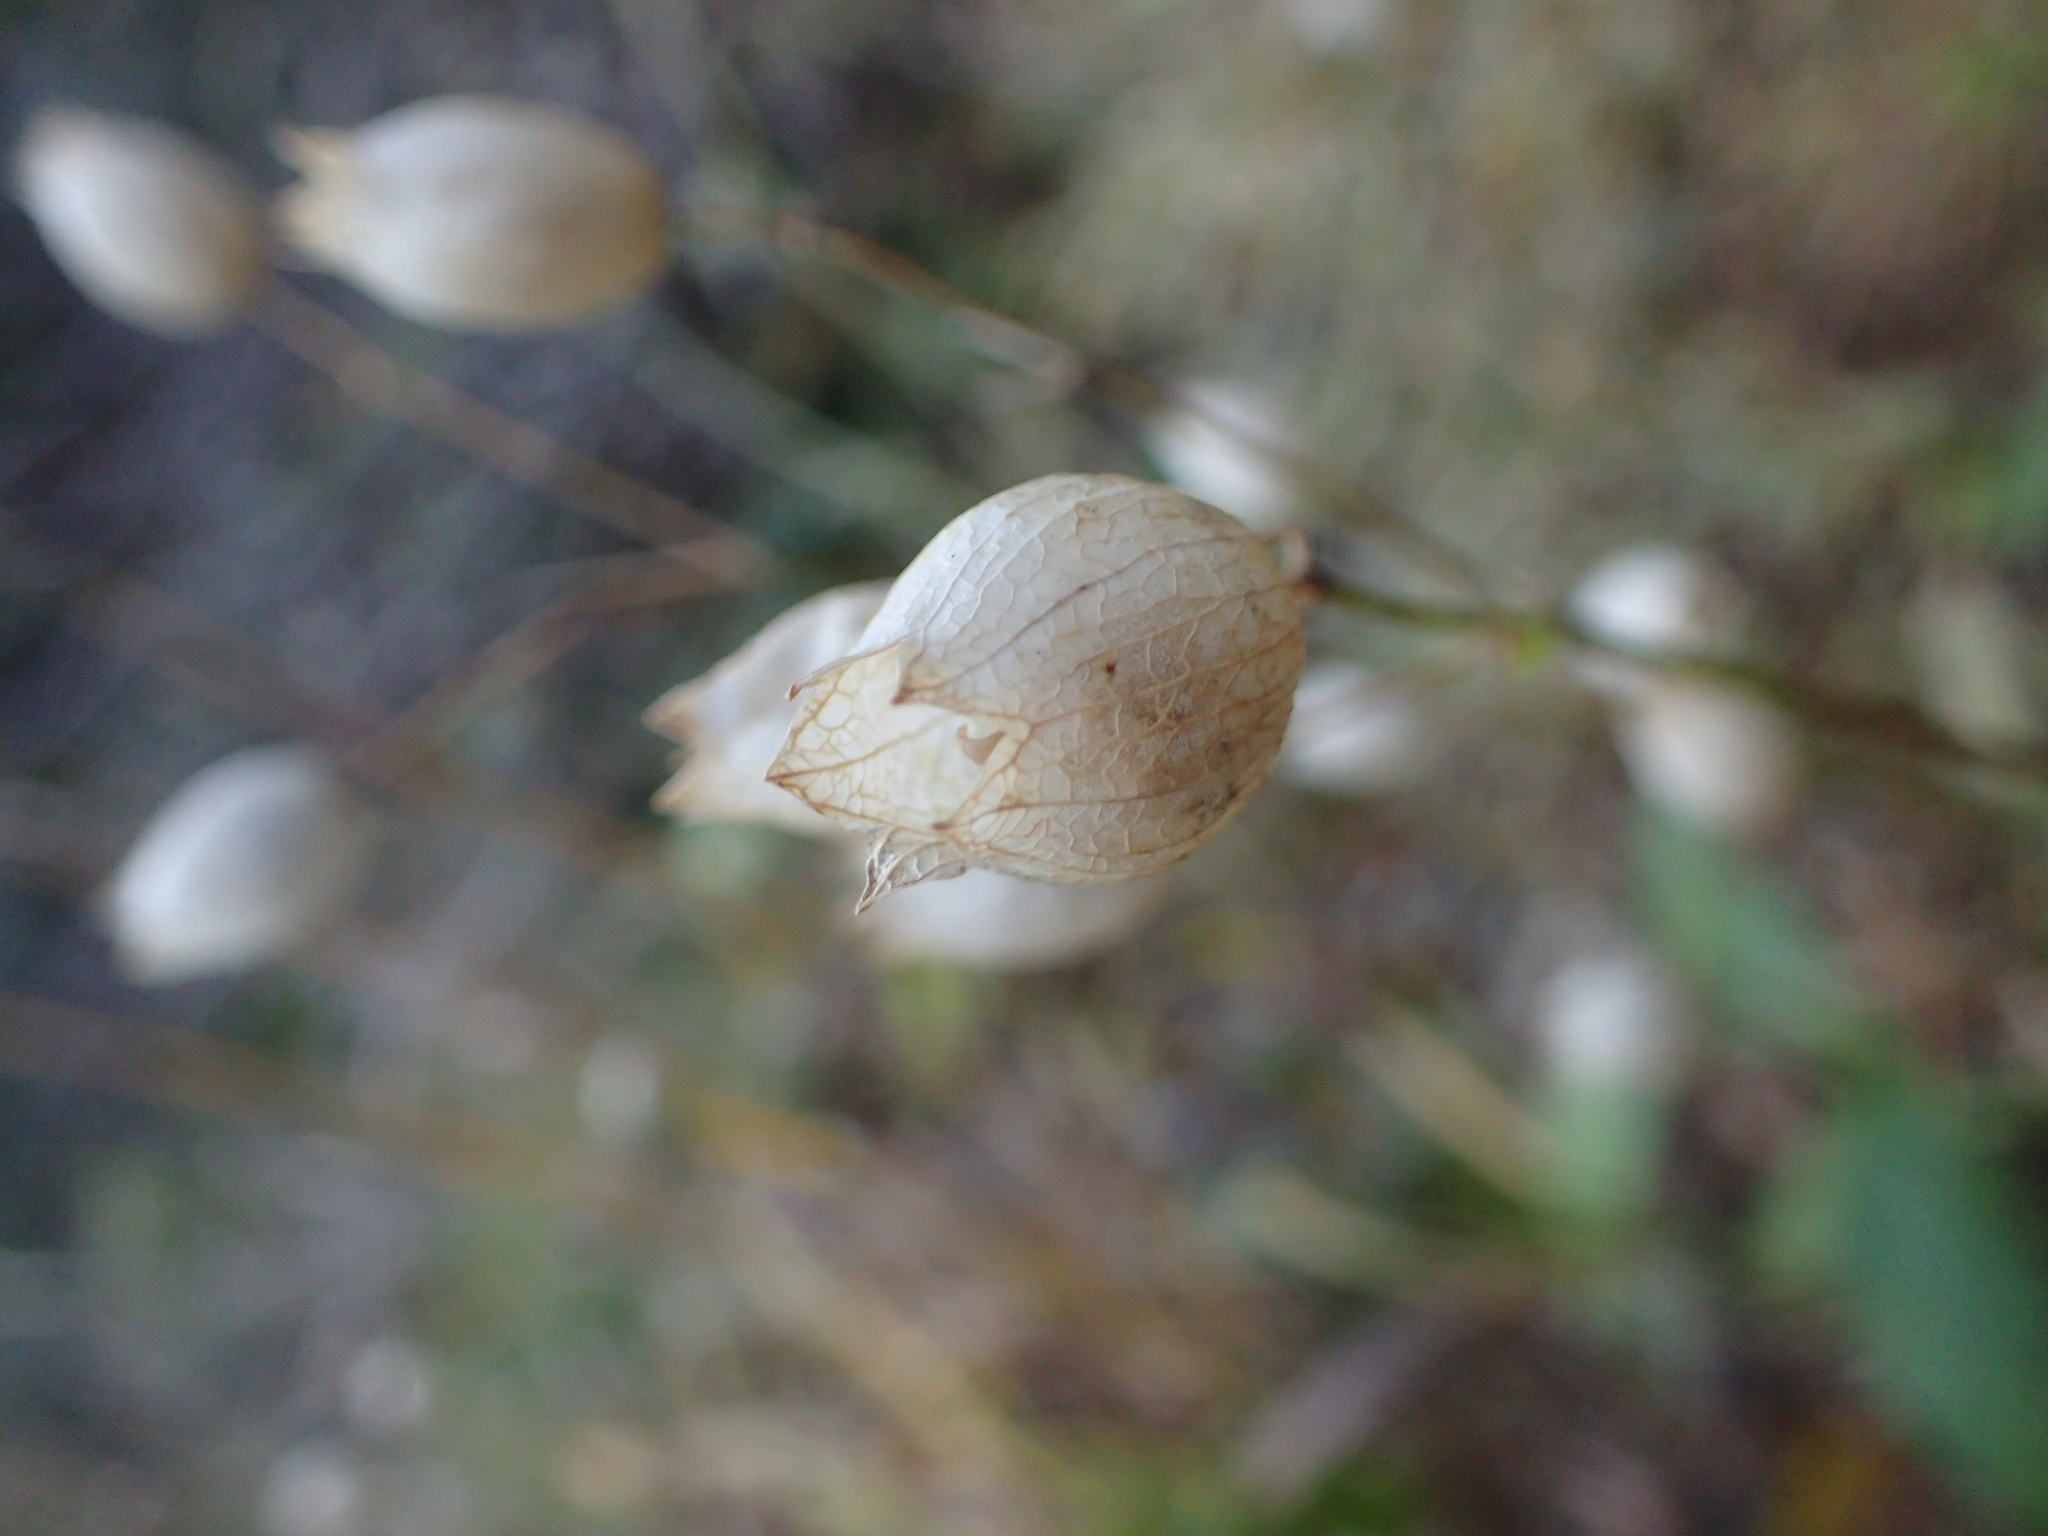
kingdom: Plantae
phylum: Tracheophyta
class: Magnoliopsida
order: Caryophyllales
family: Caryophyllaceae
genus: Silene
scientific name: Silene vulgaris
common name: Bladder campion
